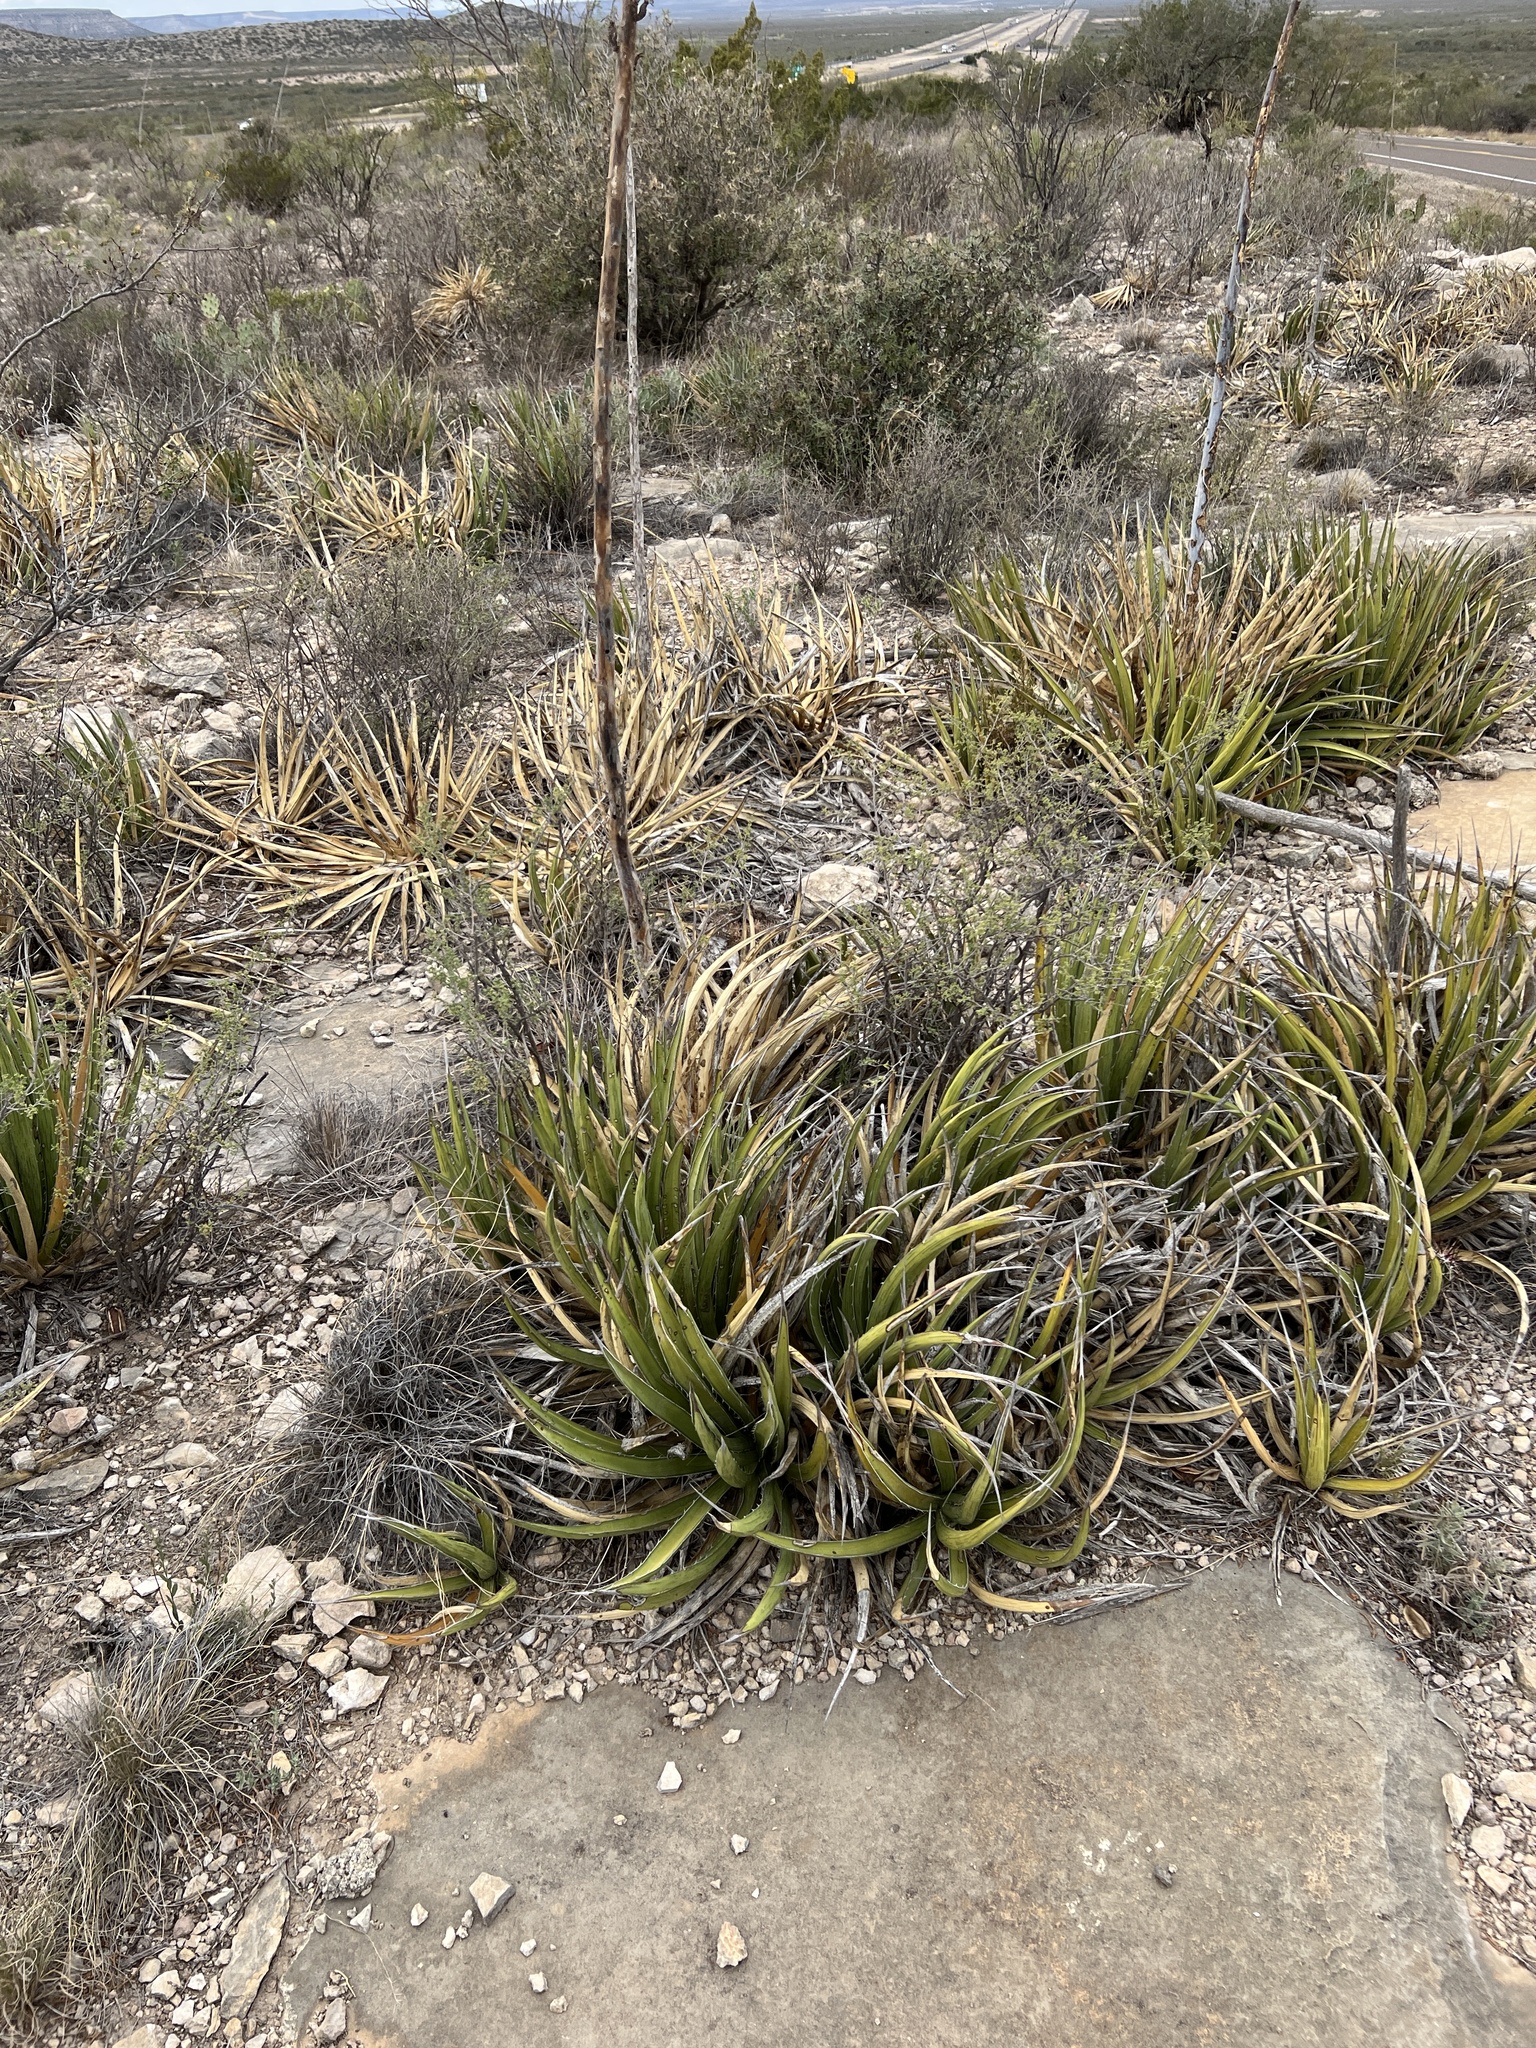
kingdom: Plantae
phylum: Tracheophyta
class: Liliopsida
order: Asparagales
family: Asparagaceae
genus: Agave
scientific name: Agave lechuguilla
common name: Lecheguilla agave
